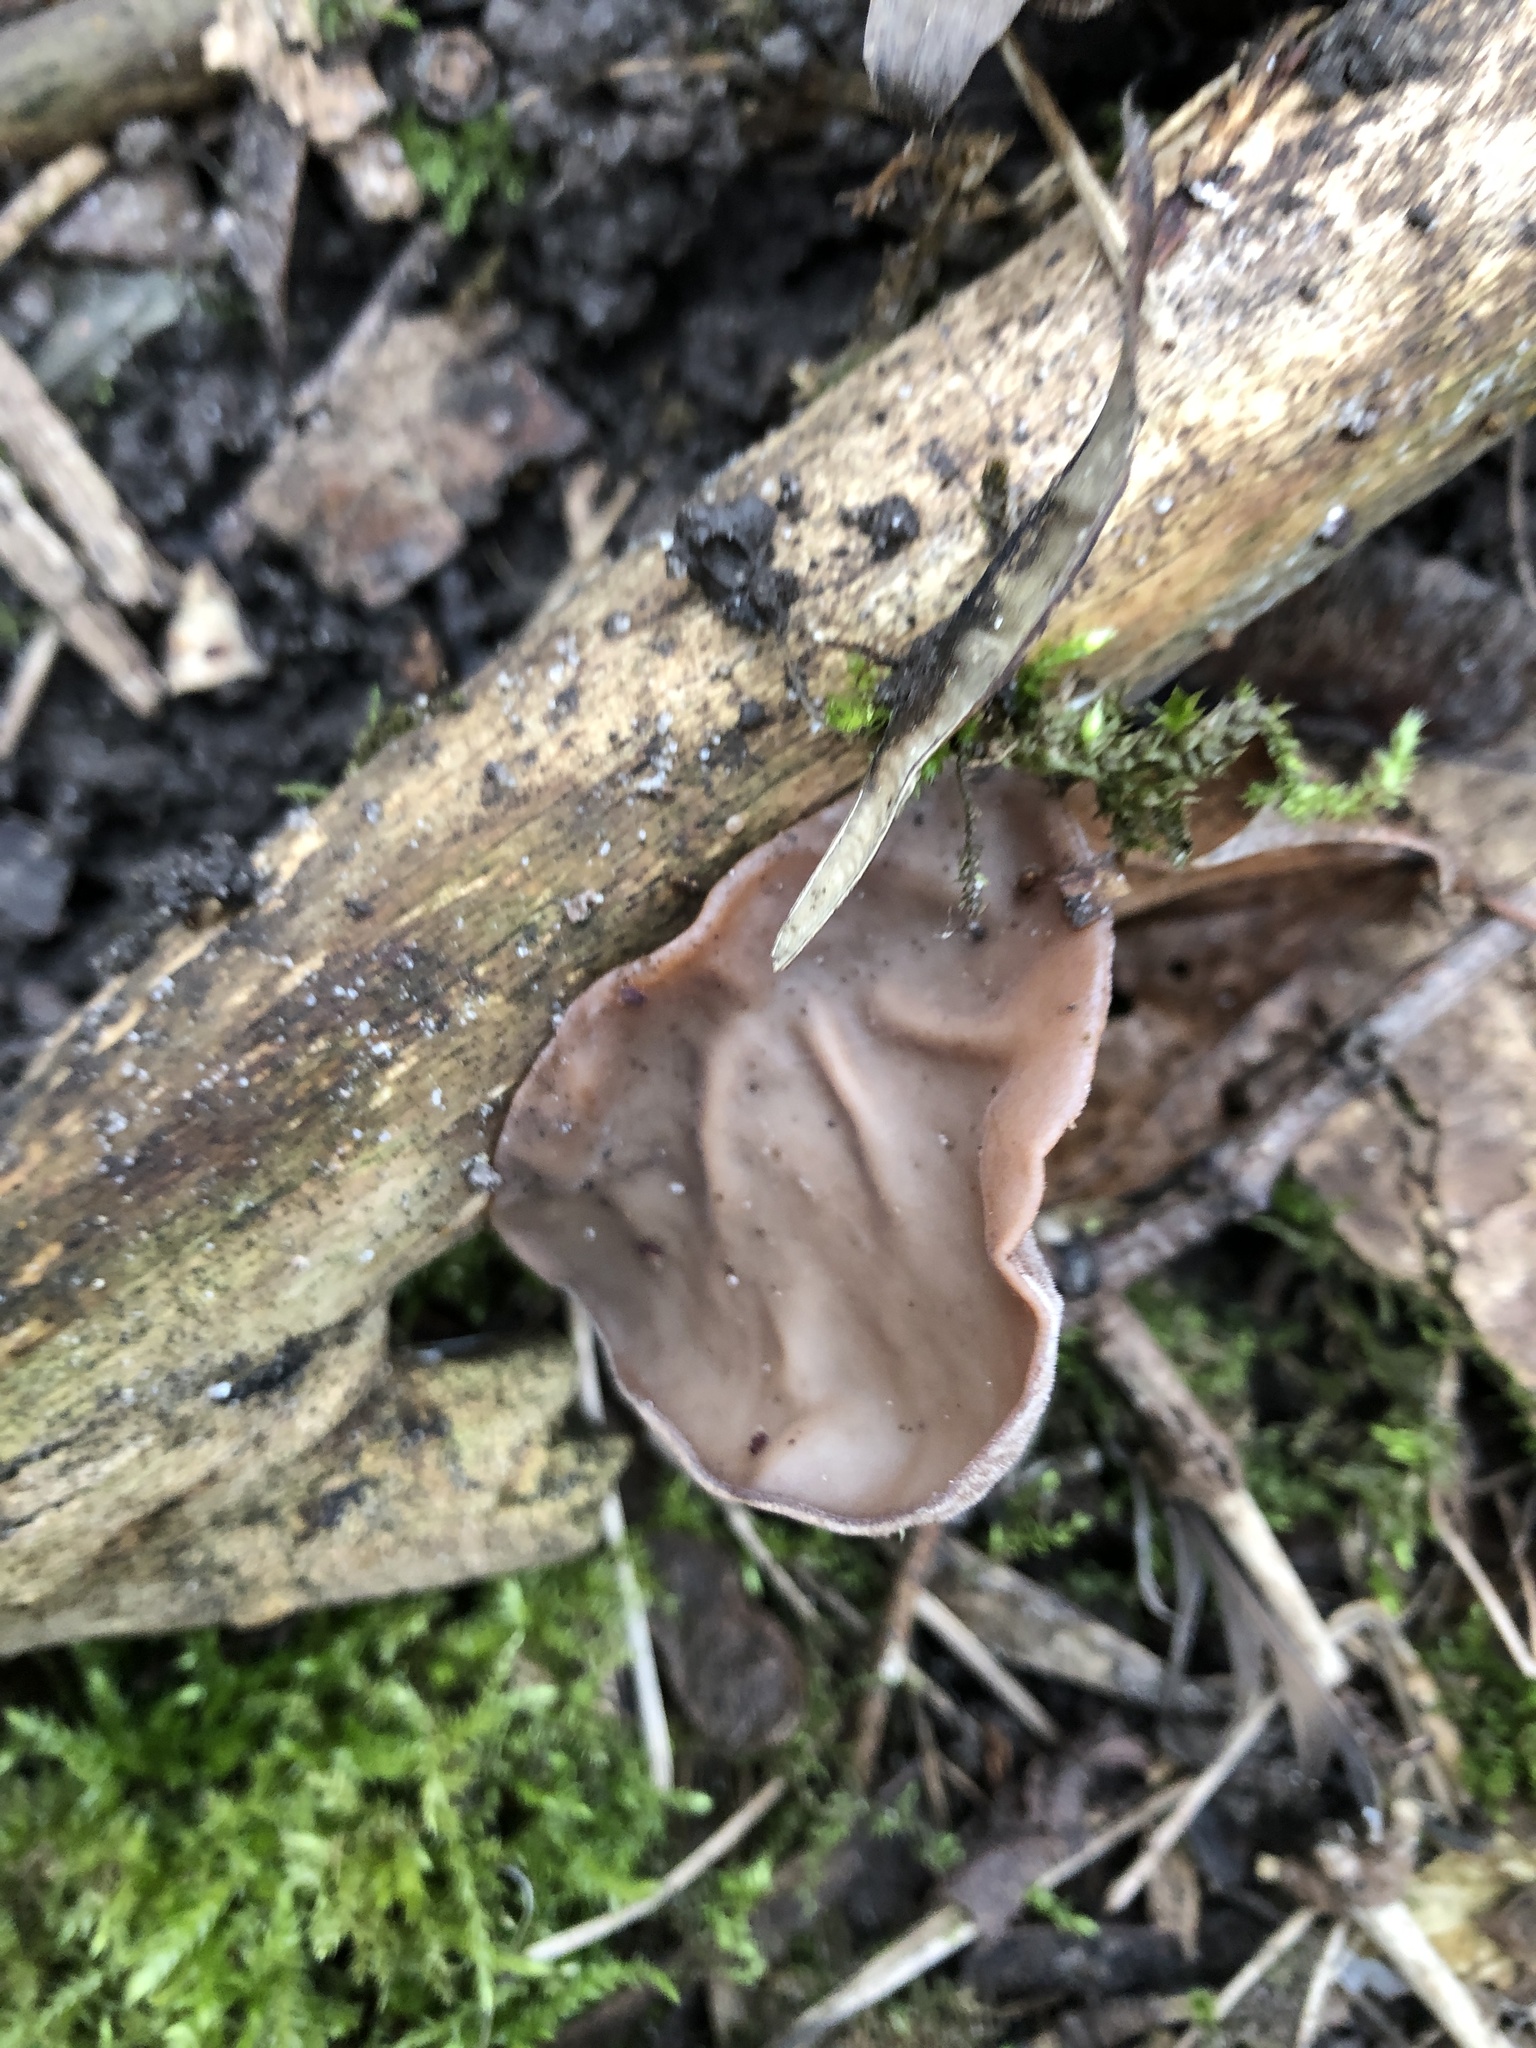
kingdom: Fungi
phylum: Basidiomycota
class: Agaricomycetes
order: Auriculariales
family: Auriculariaceae
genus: Auricularia
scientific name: Auricularia auricula-judae
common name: Jelly ear
